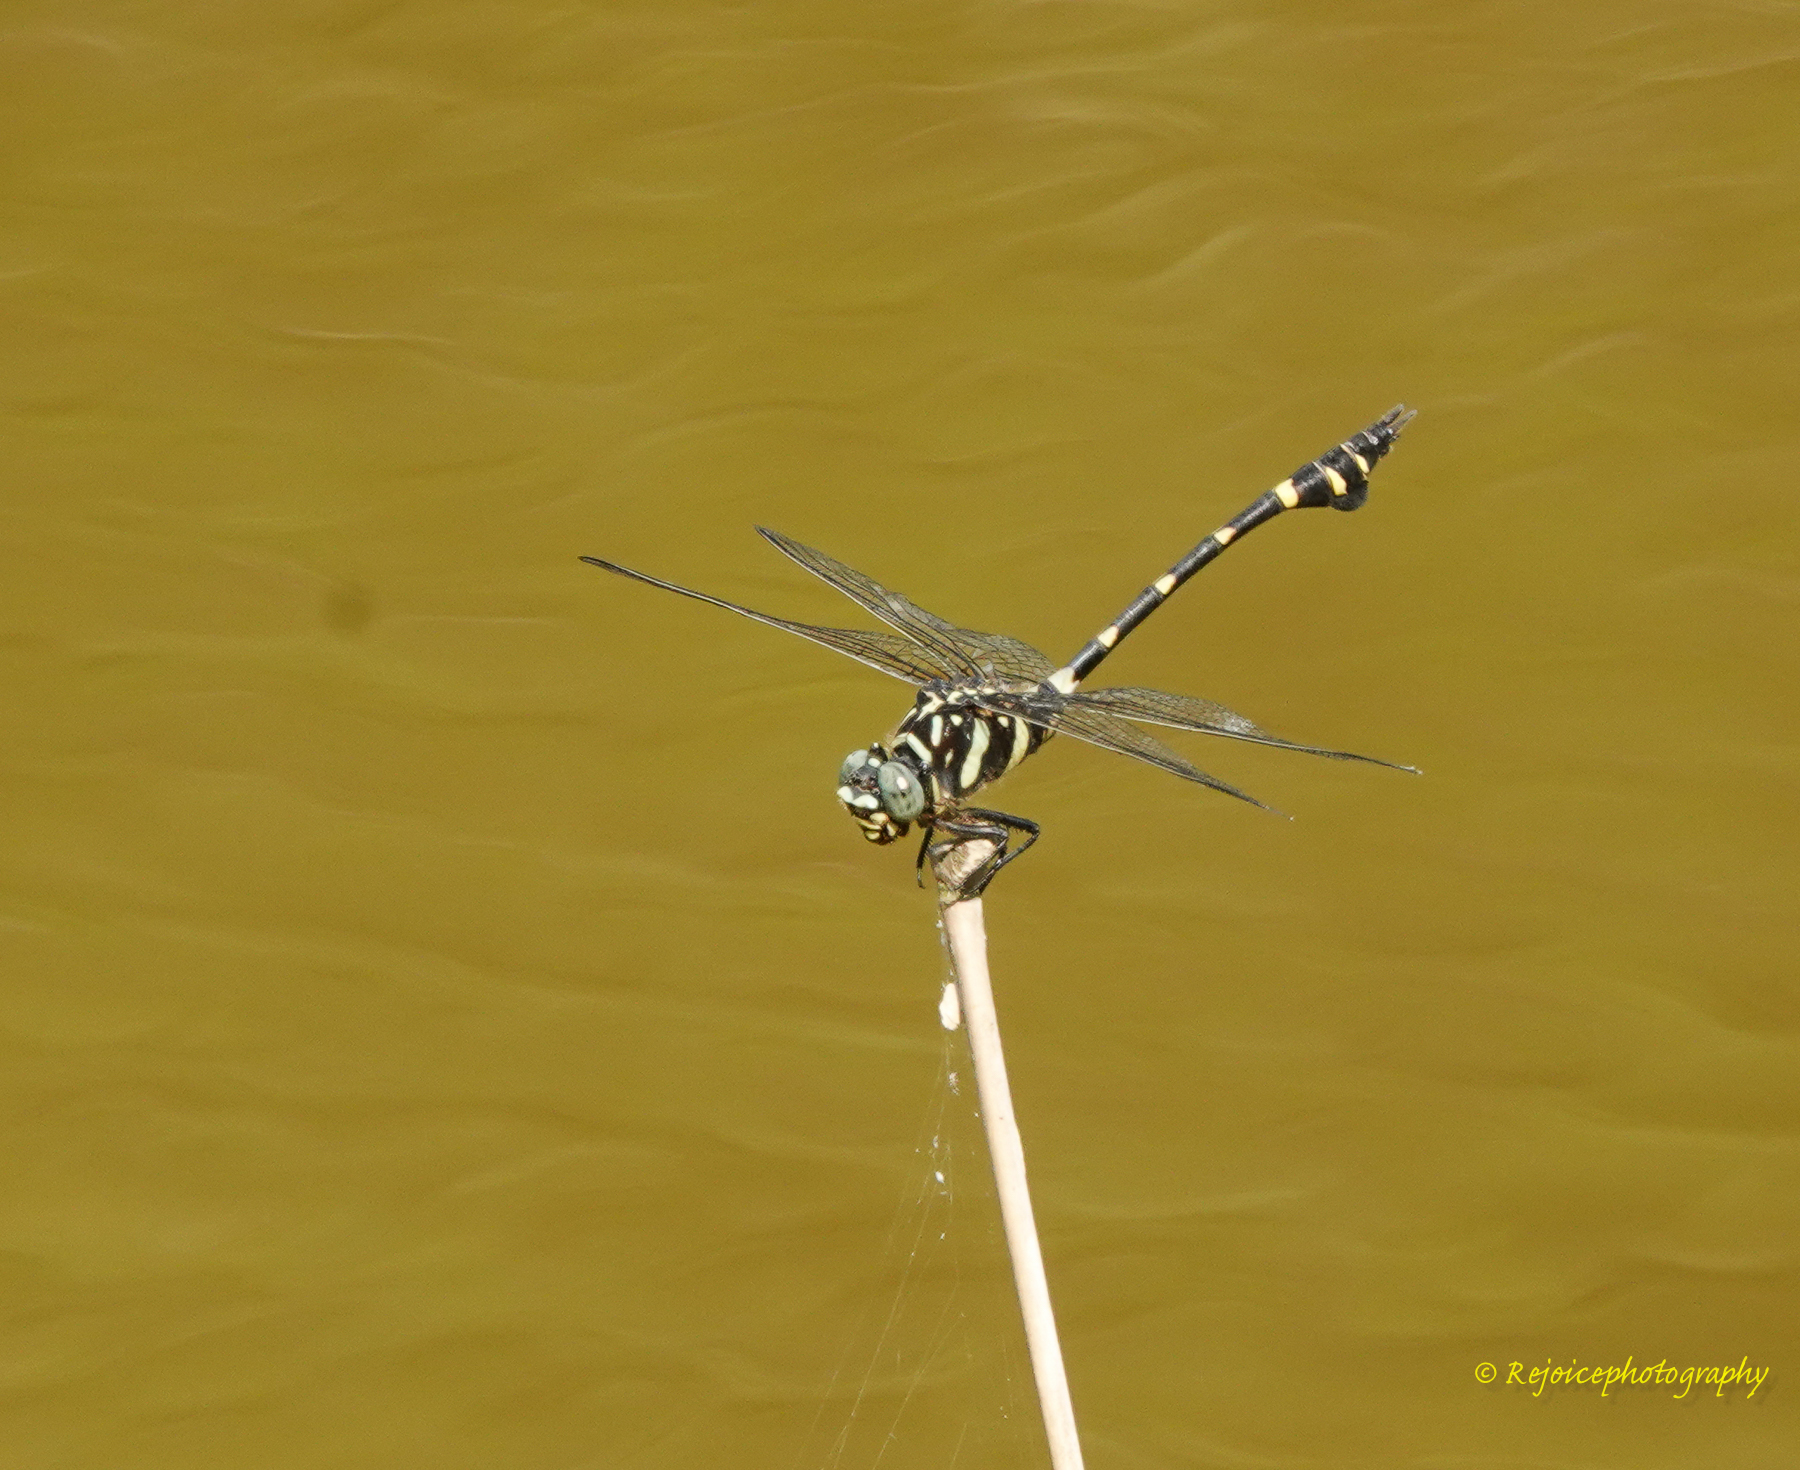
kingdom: Animalia
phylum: Arthropoda
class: Insecta
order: Odonata
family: Gomphidae
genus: Ictinogomphus
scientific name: Ictinogomphus rapax
